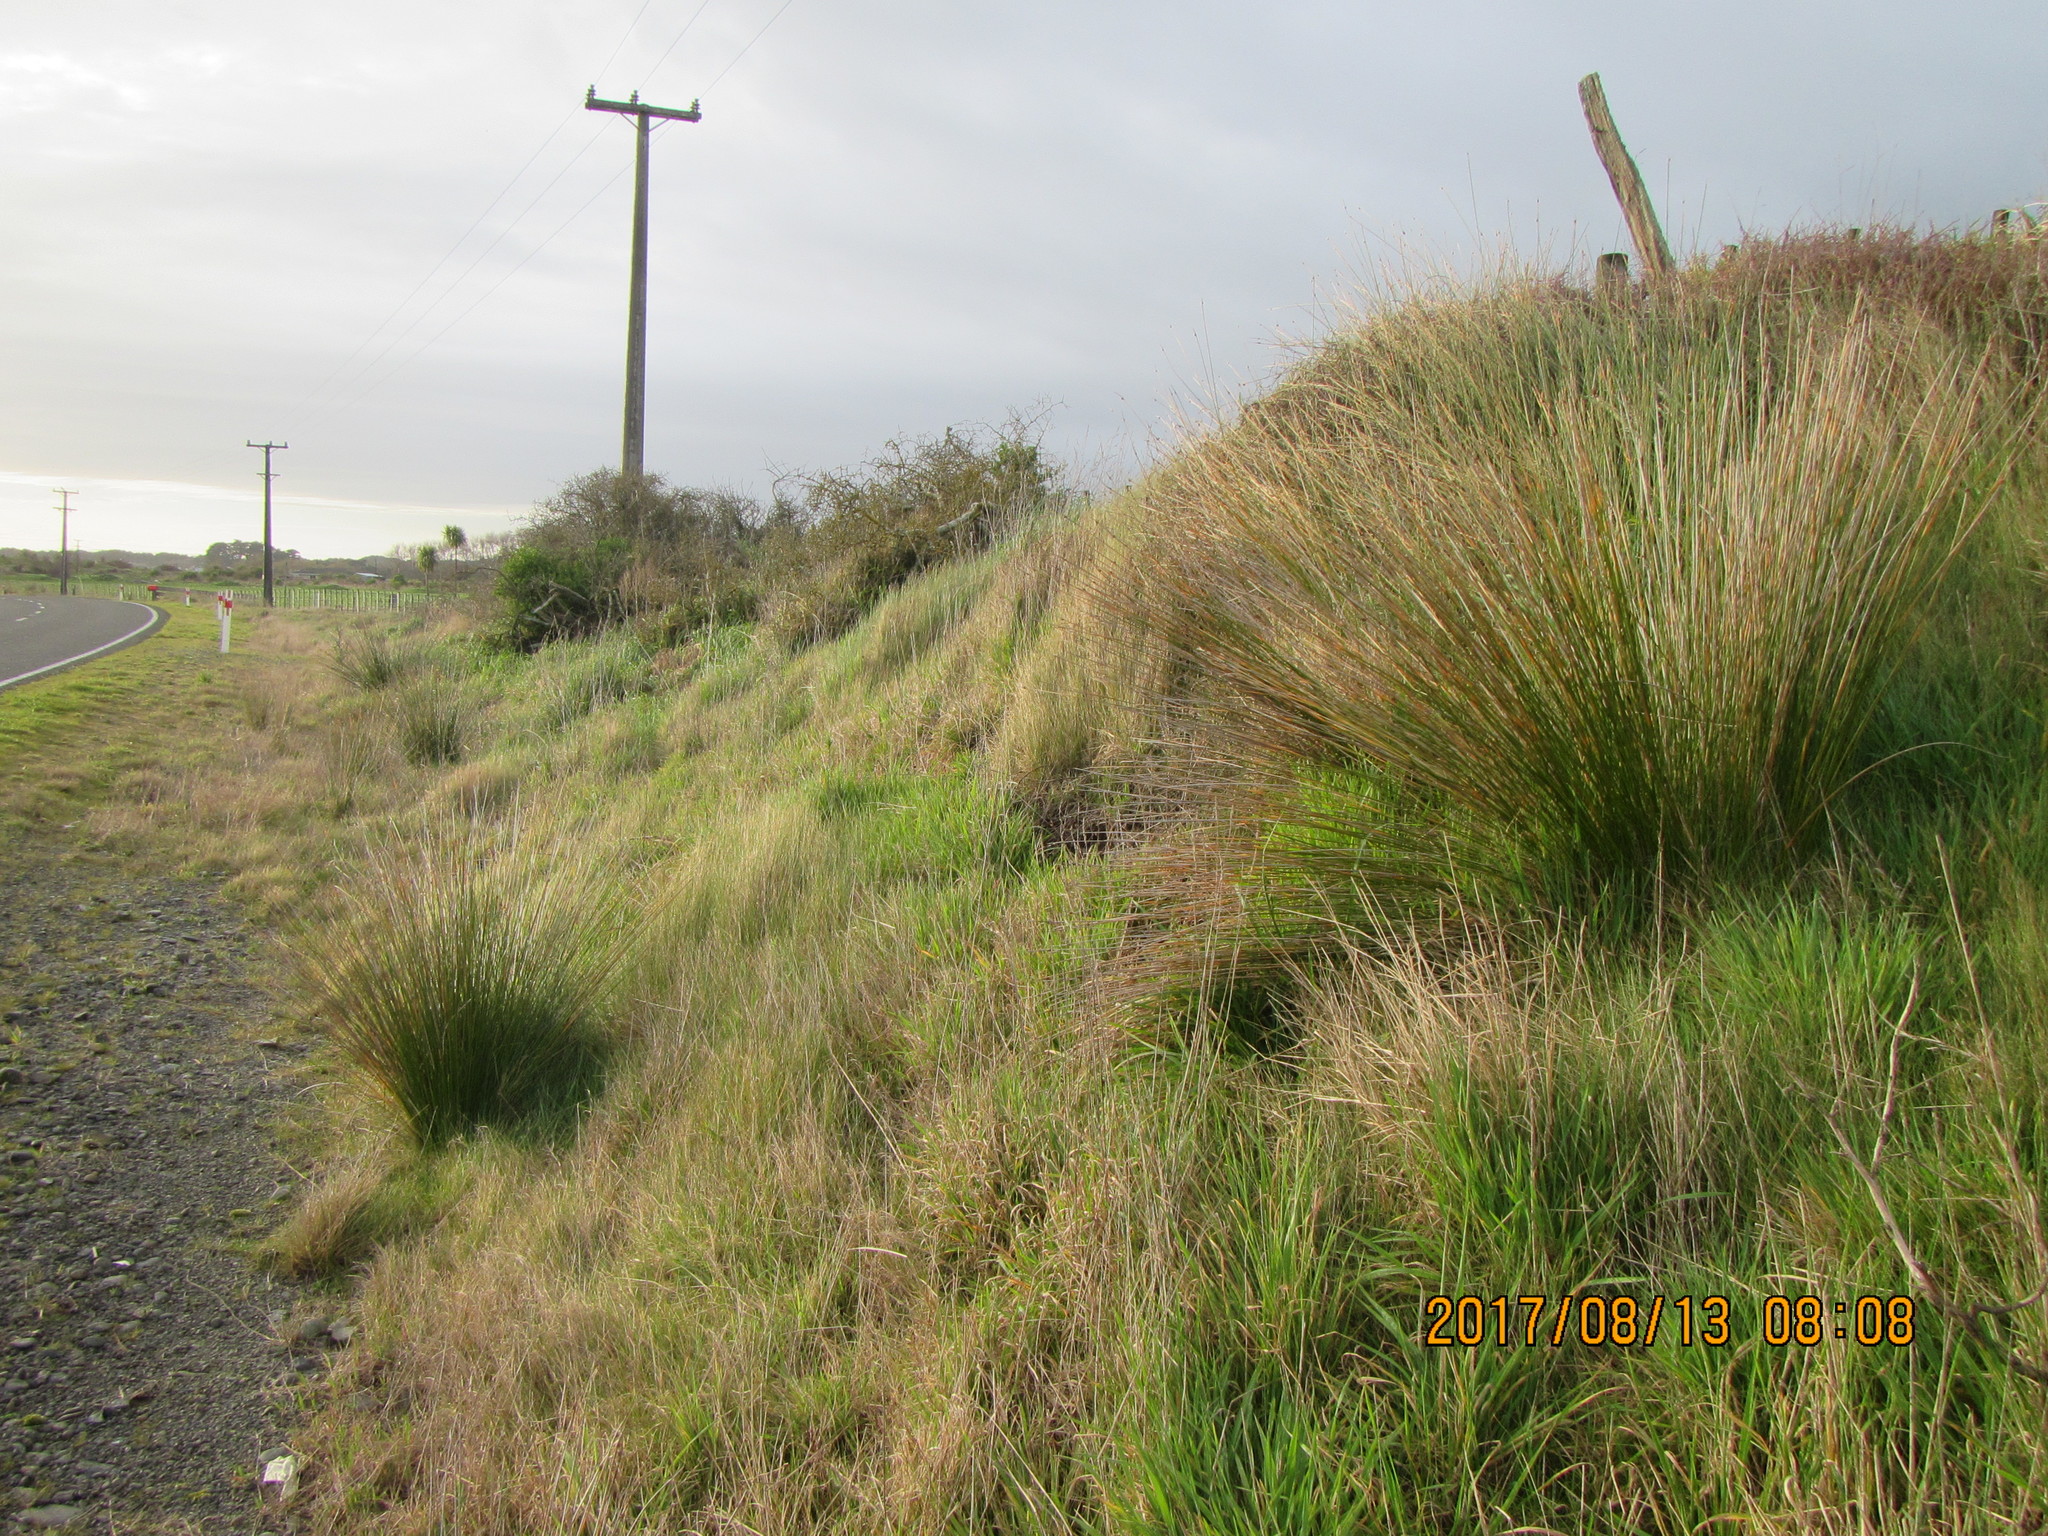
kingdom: Plantae
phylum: Tracheophyta
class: Liliopsida
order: Poales
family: Cyperaceae
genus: Ficinia
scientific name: Ficinia nodosa
